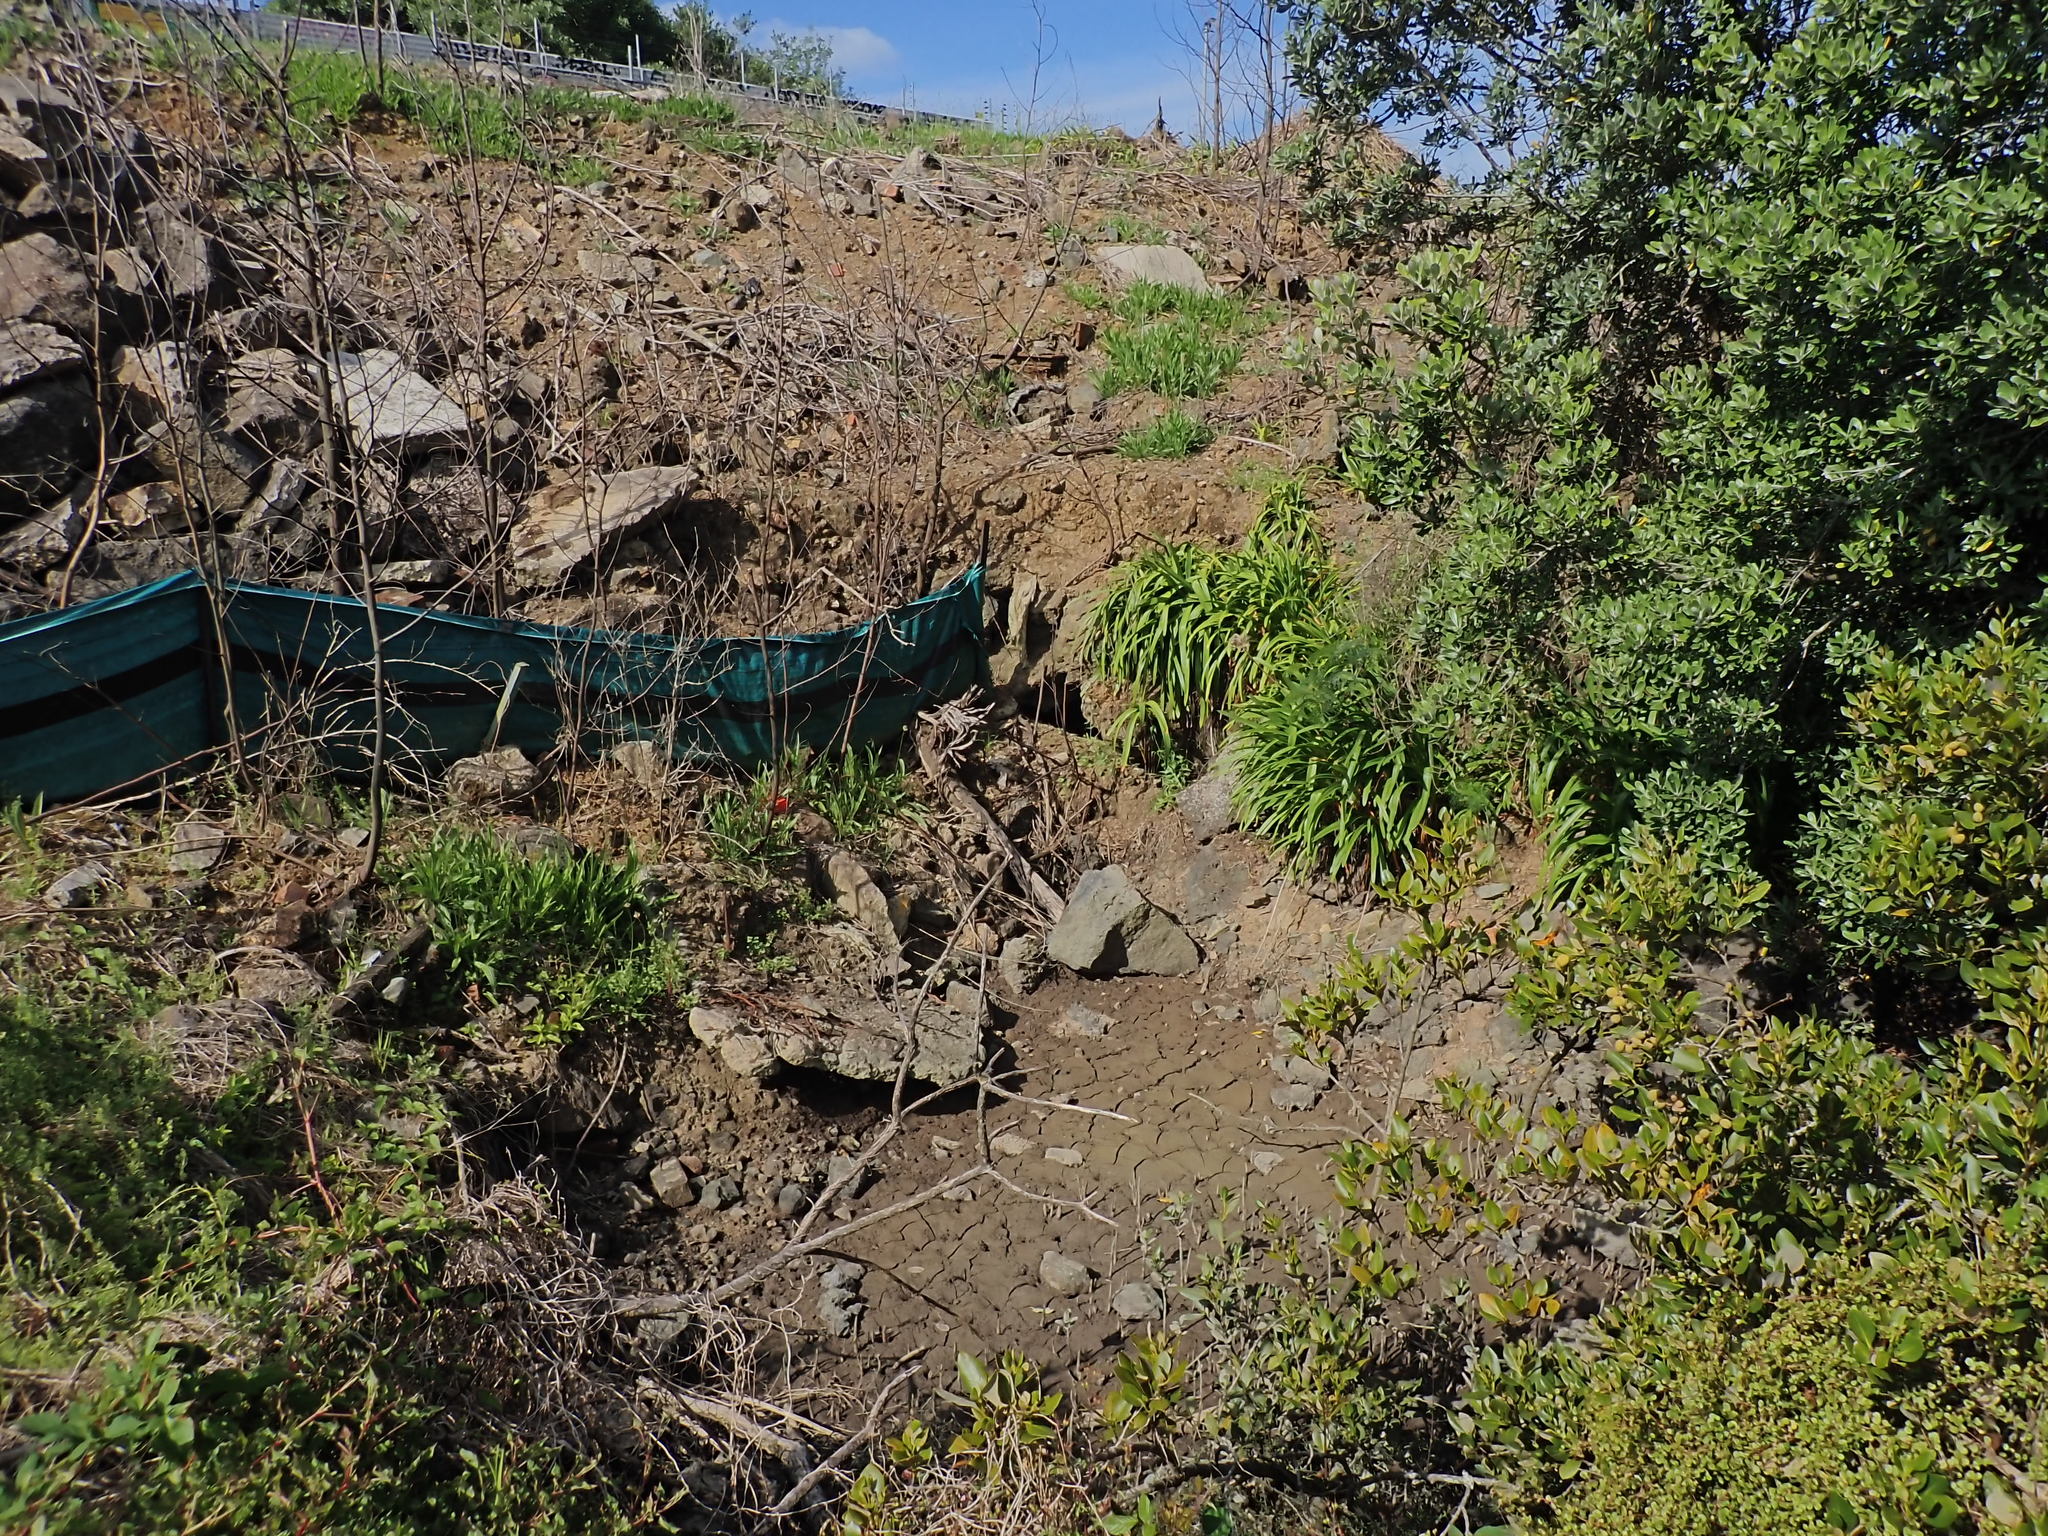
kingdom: Plantae
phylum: Tracheophyta
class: Magnoliopsida
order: Lamiales
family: Acanthaceae
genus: Avicennia
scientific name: Avicennia marina
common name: Gray mangrove
